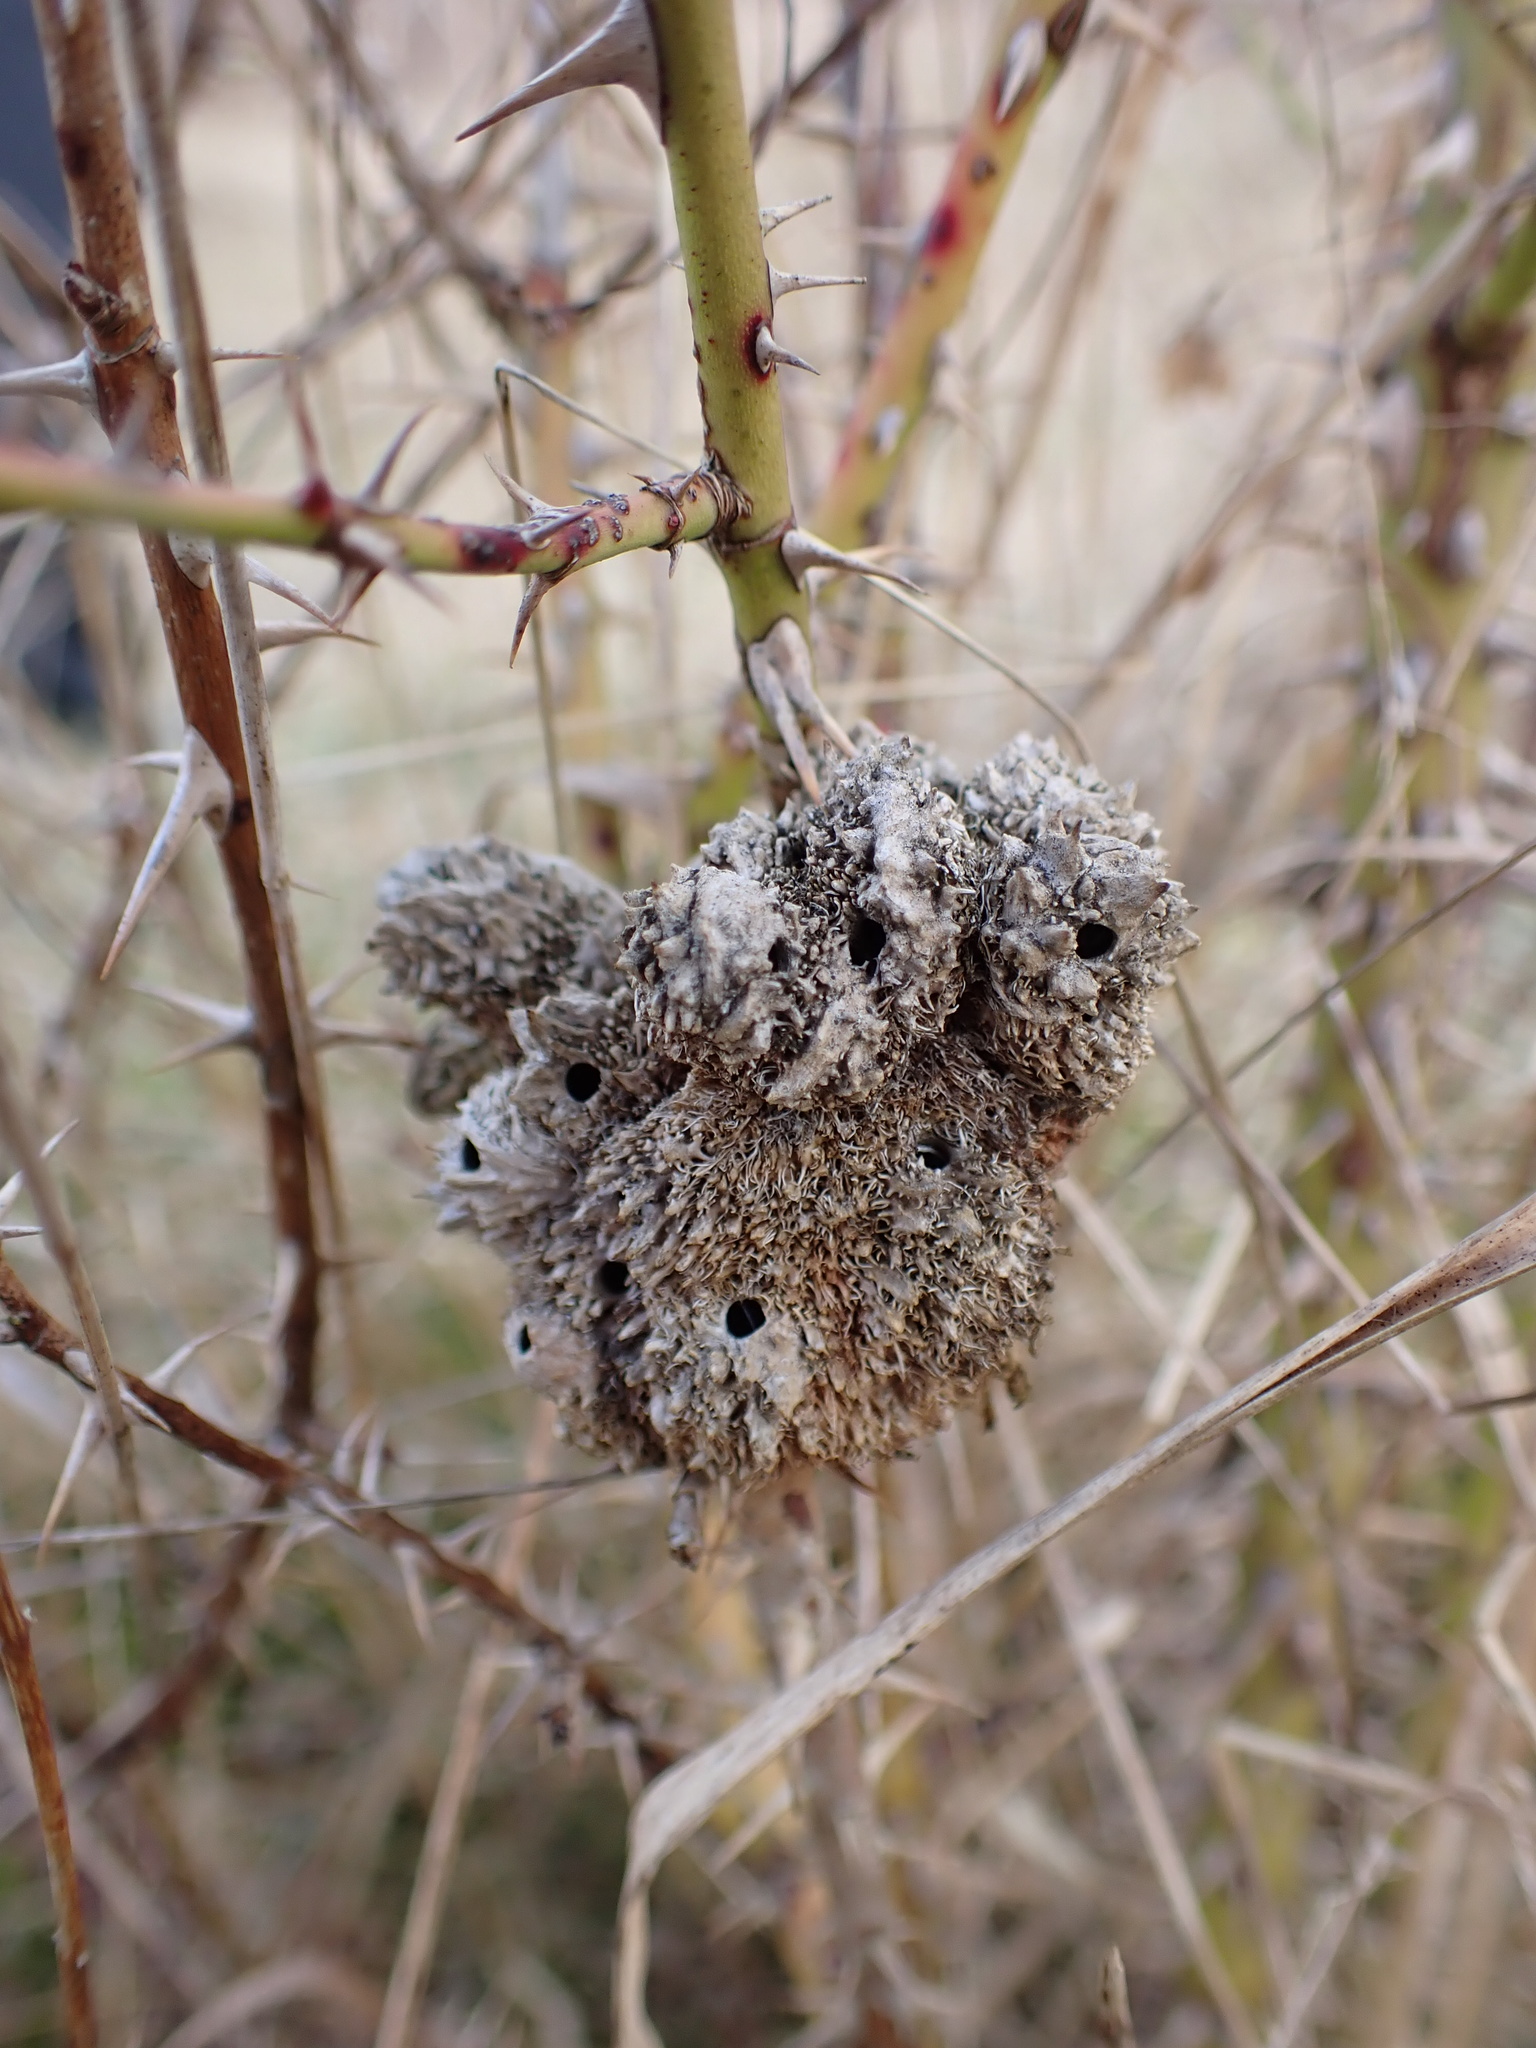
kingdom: Animalia
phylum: Arthropoda
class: Insecta
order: Hymenoptera
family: Cynipidae
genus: Diplolepis
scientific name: Diplolepis rosae
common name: Bedeguar gall
